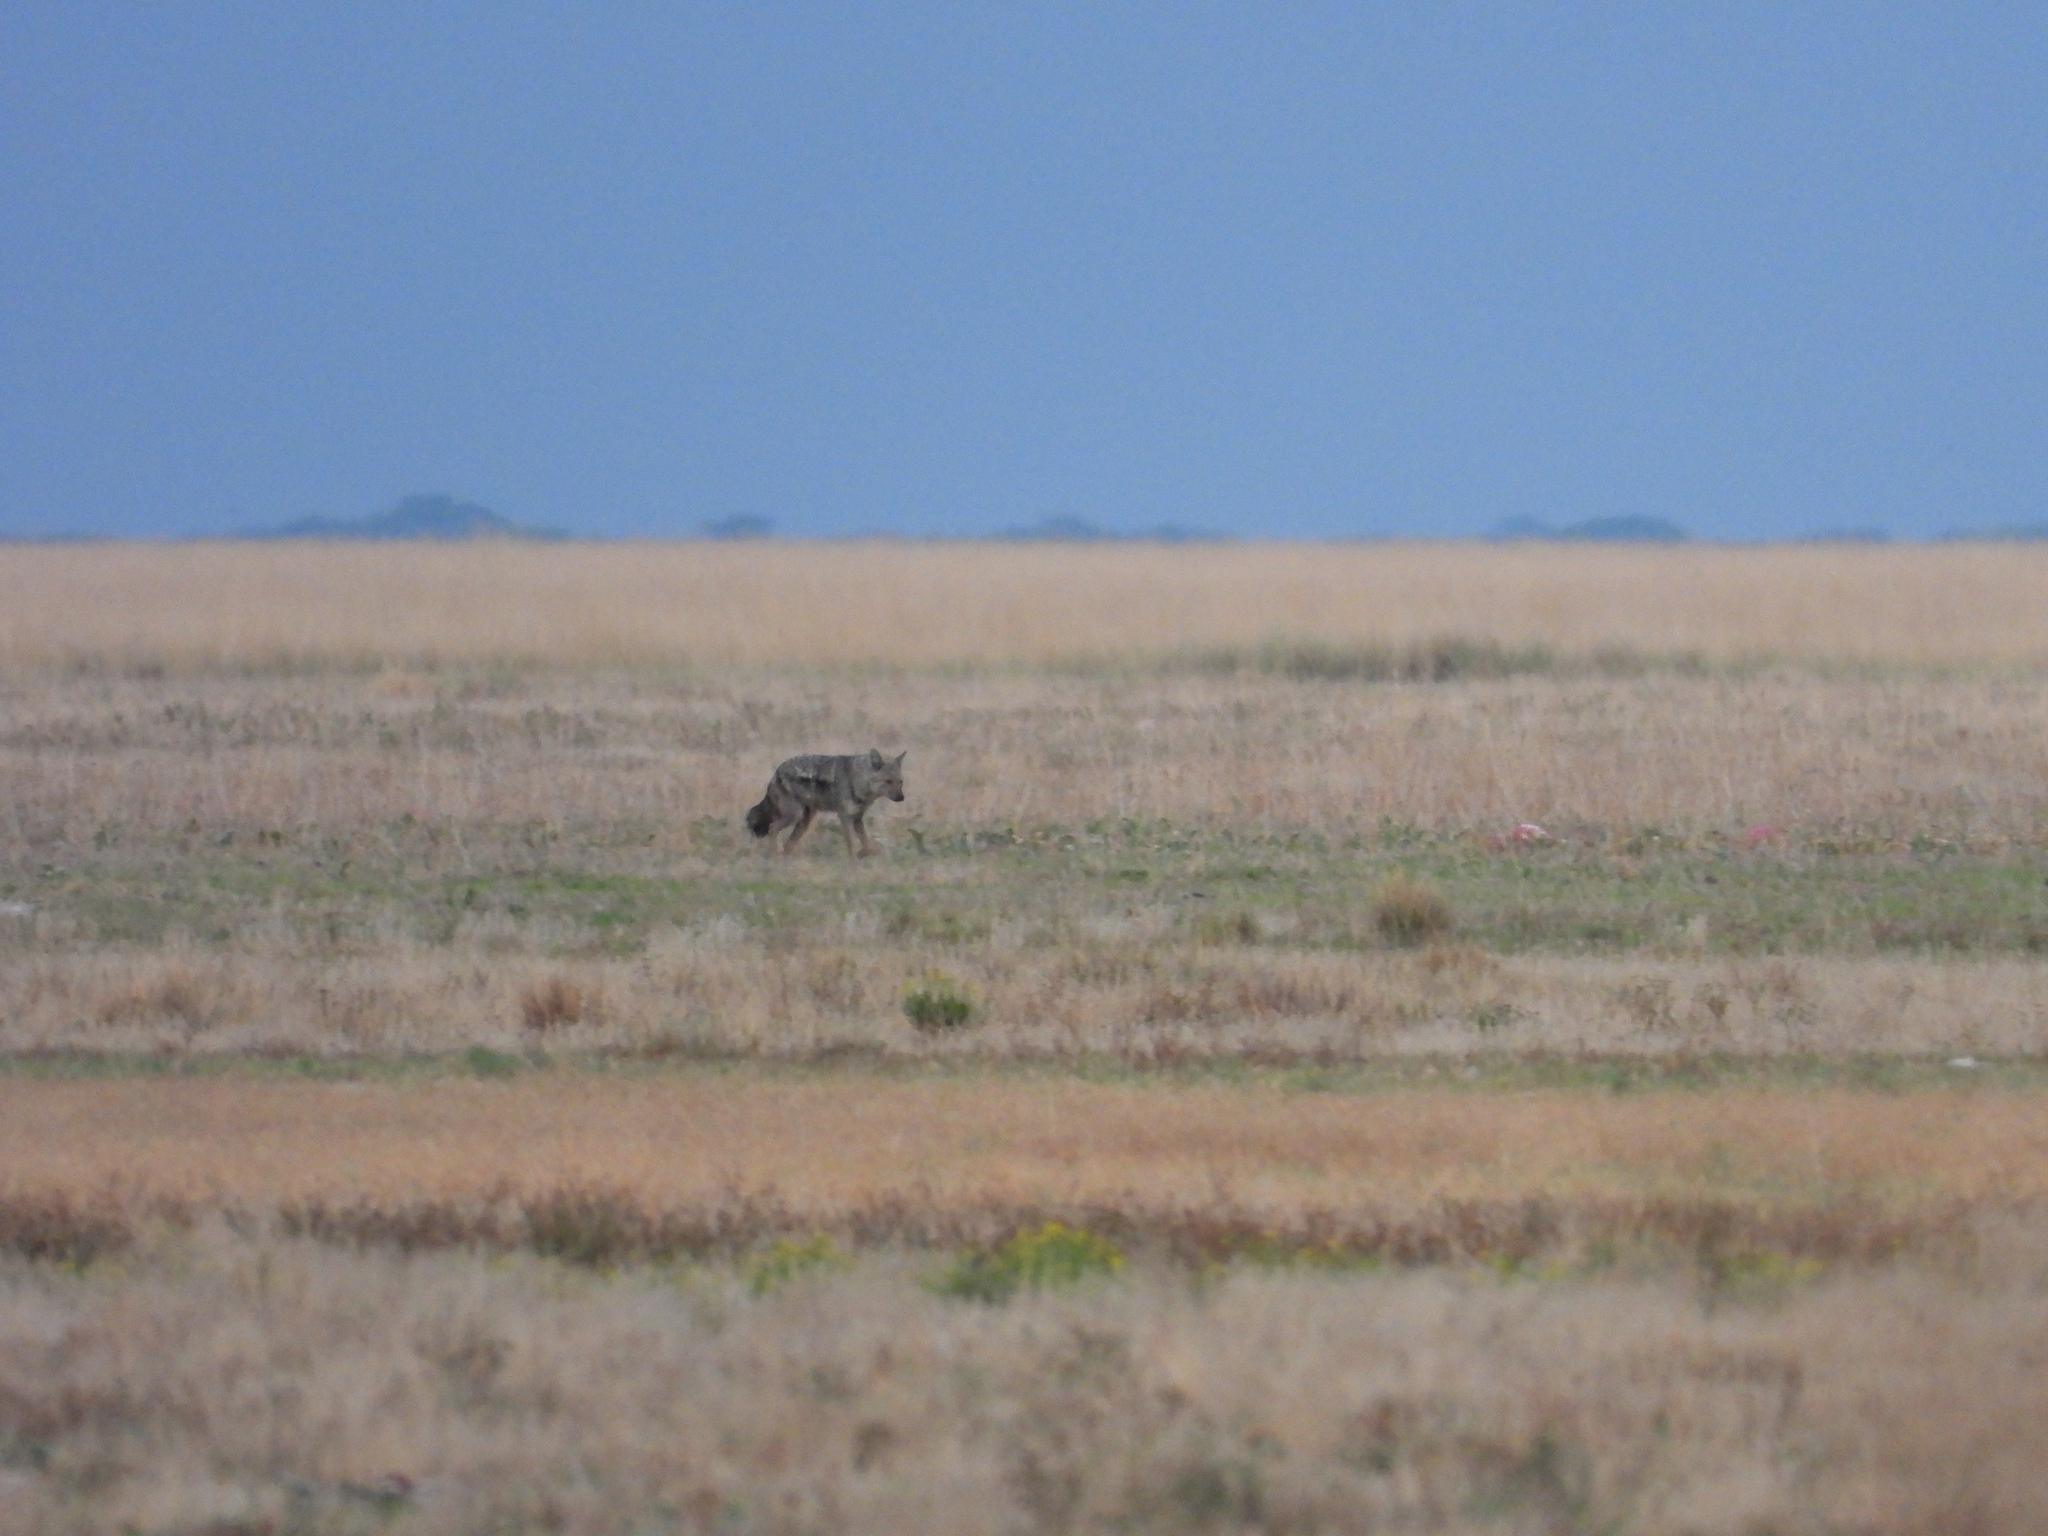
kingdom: Animalia
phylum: Chordata
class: Mammalia
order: Carnivora
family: Canidae
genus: Lupulella
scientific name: Lupulella
